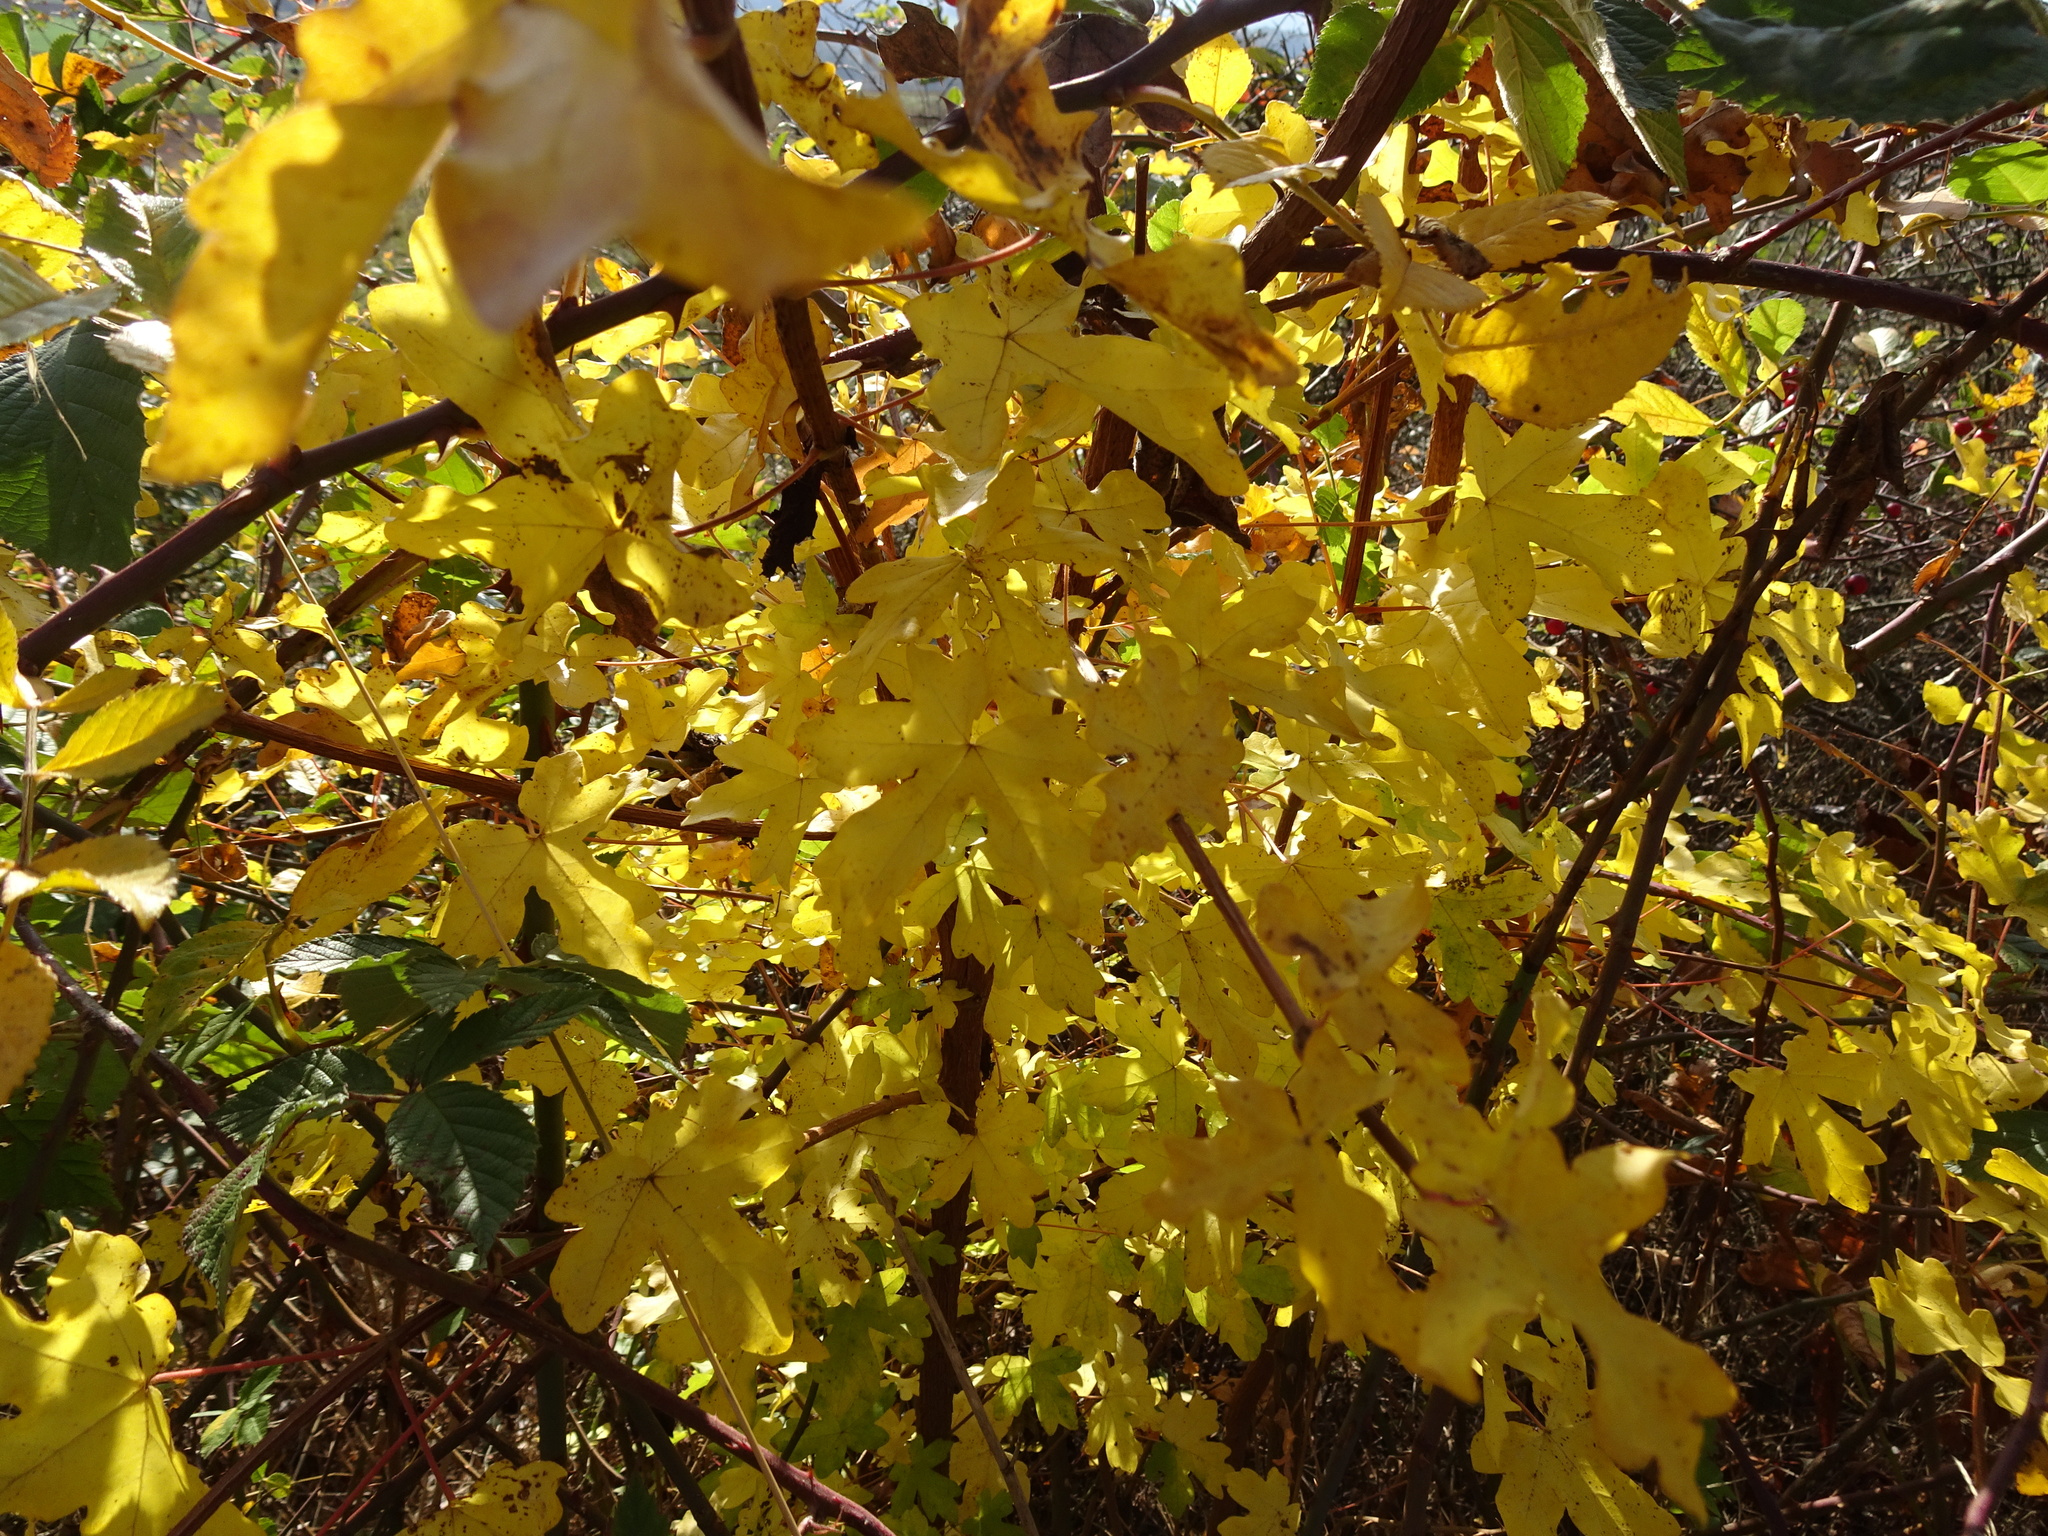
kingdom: Plantae
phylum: Tracheophyta
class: Magnoliopsida
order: Sapindales
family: Sapindaceae
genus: Acer
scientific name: Acer campestre
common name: Field maple
